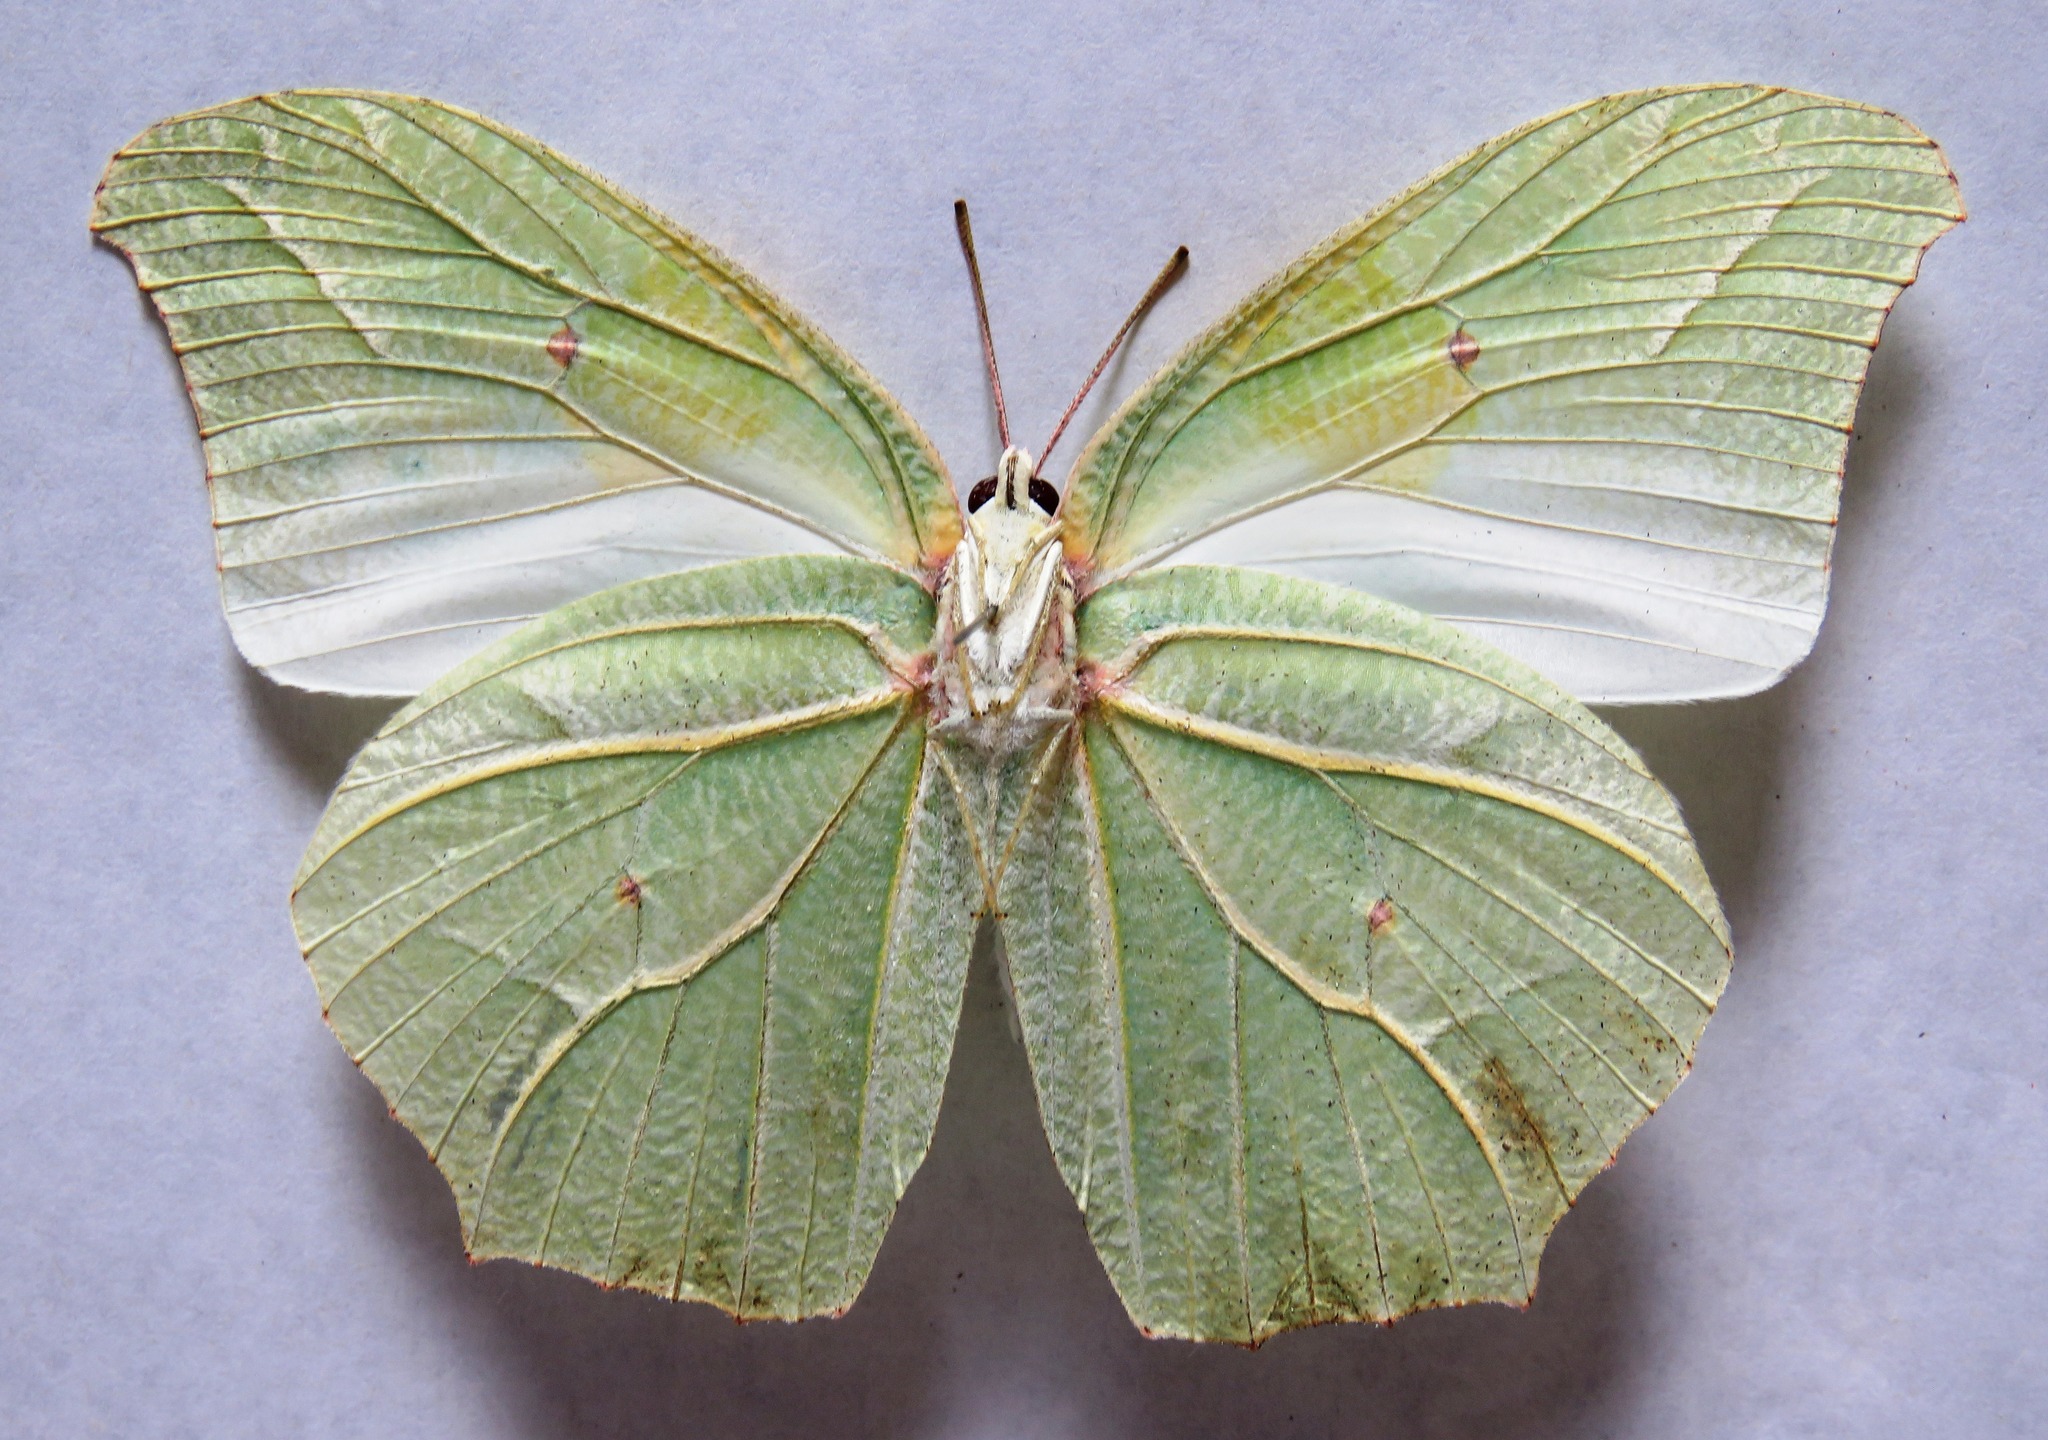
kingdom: Animalia
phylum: Arthropoda
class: Insecta
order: Lepidoptera
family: Pieridae
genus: Anteos
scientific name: Anteos clorinde
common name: White angled sulphur
